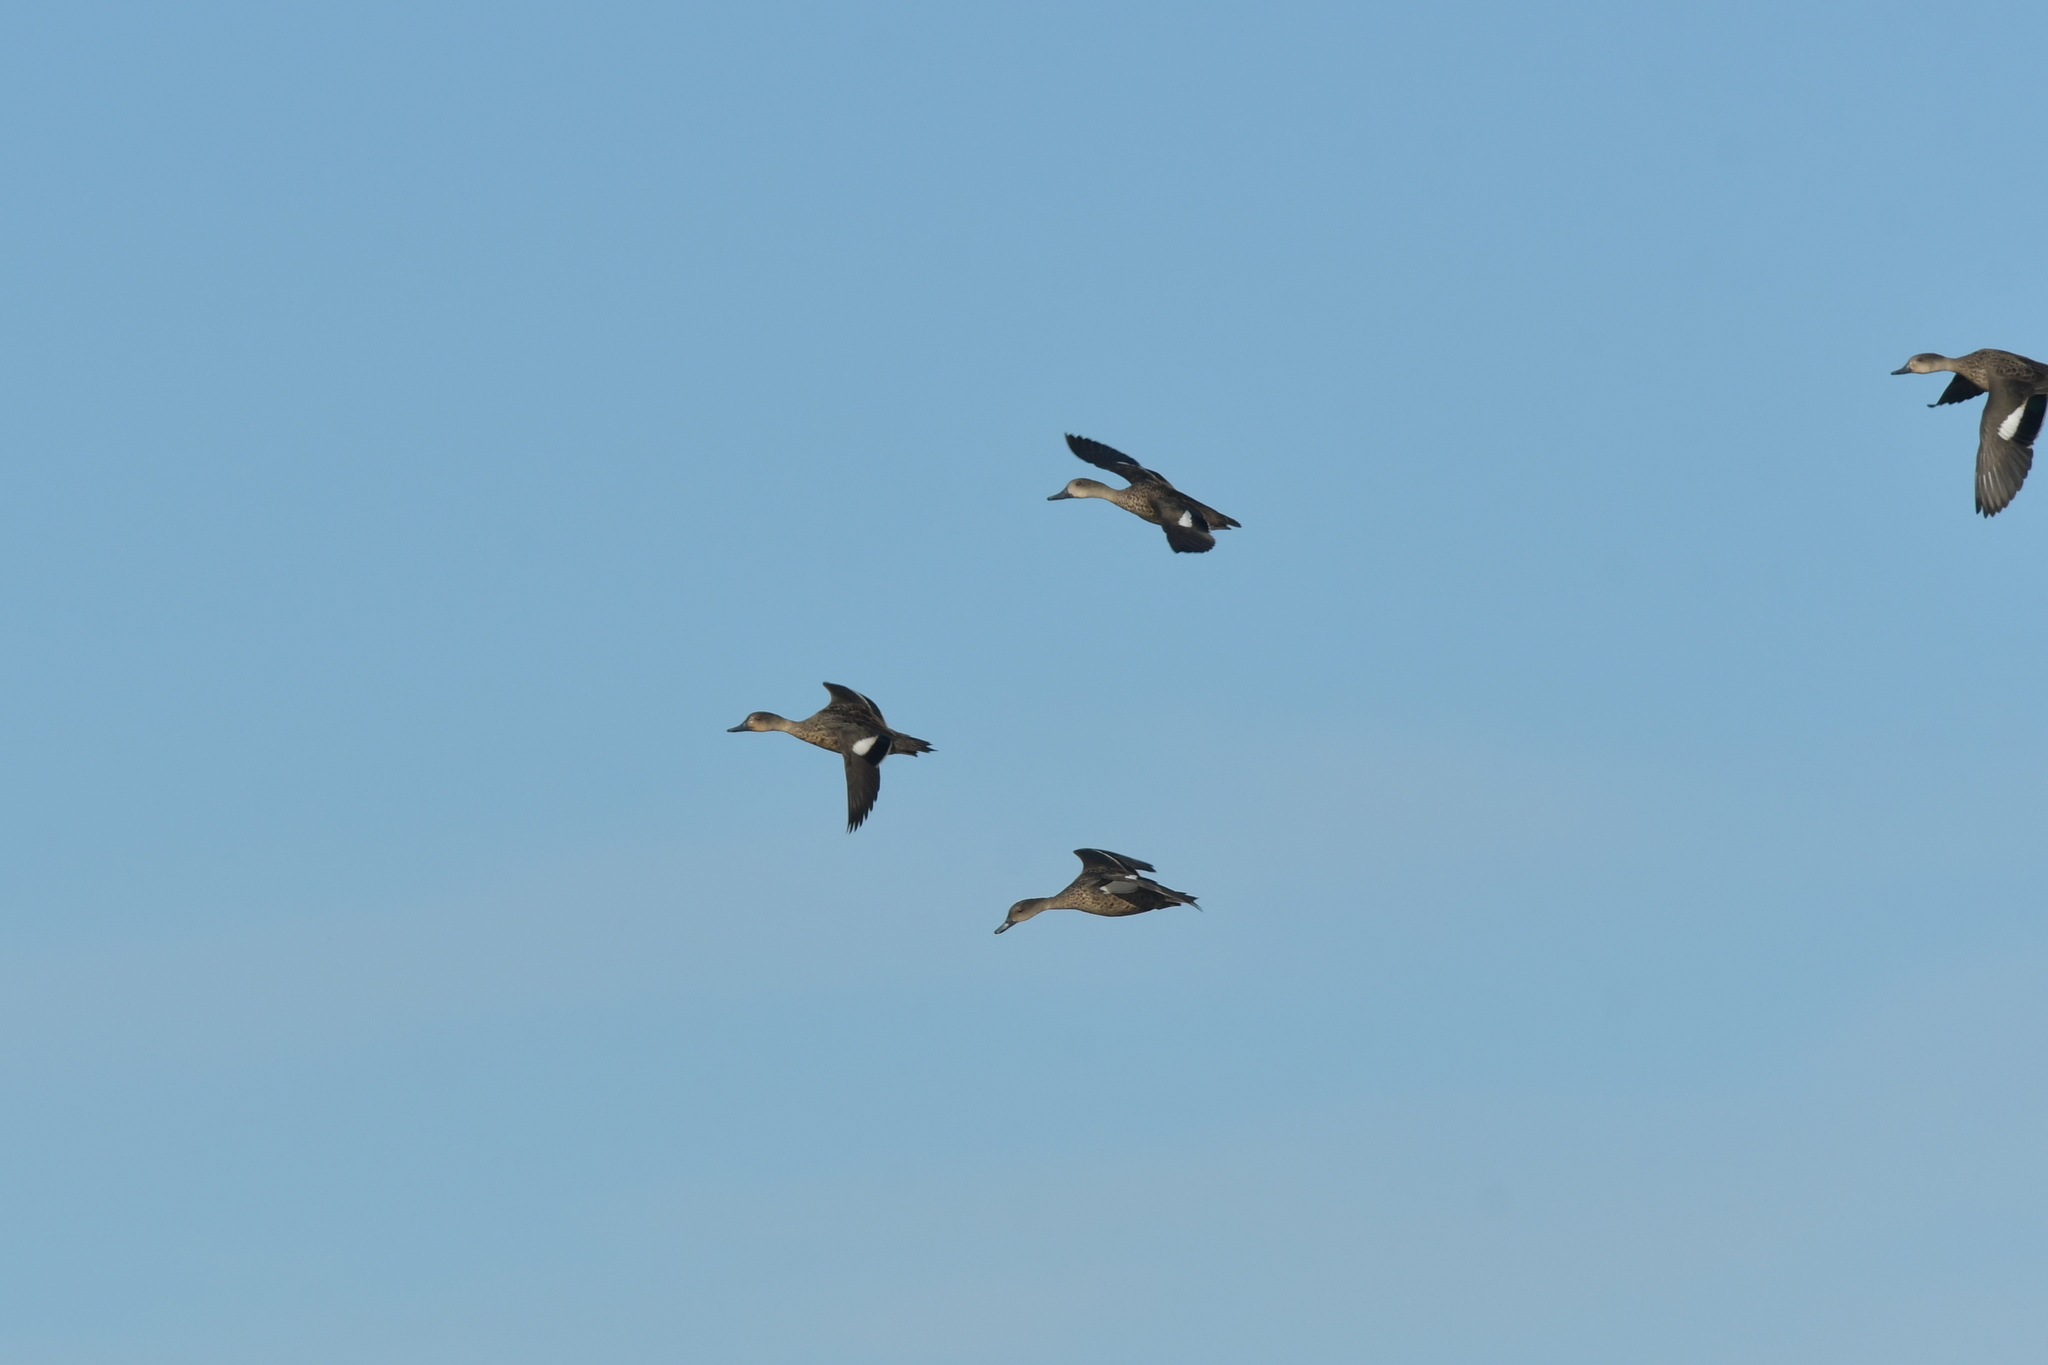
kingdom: Animalia
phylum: Chordata
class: Aves
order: Anseriformes
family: Anatidae
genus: Anas
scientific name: Anas gracilis
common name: Grey teal
